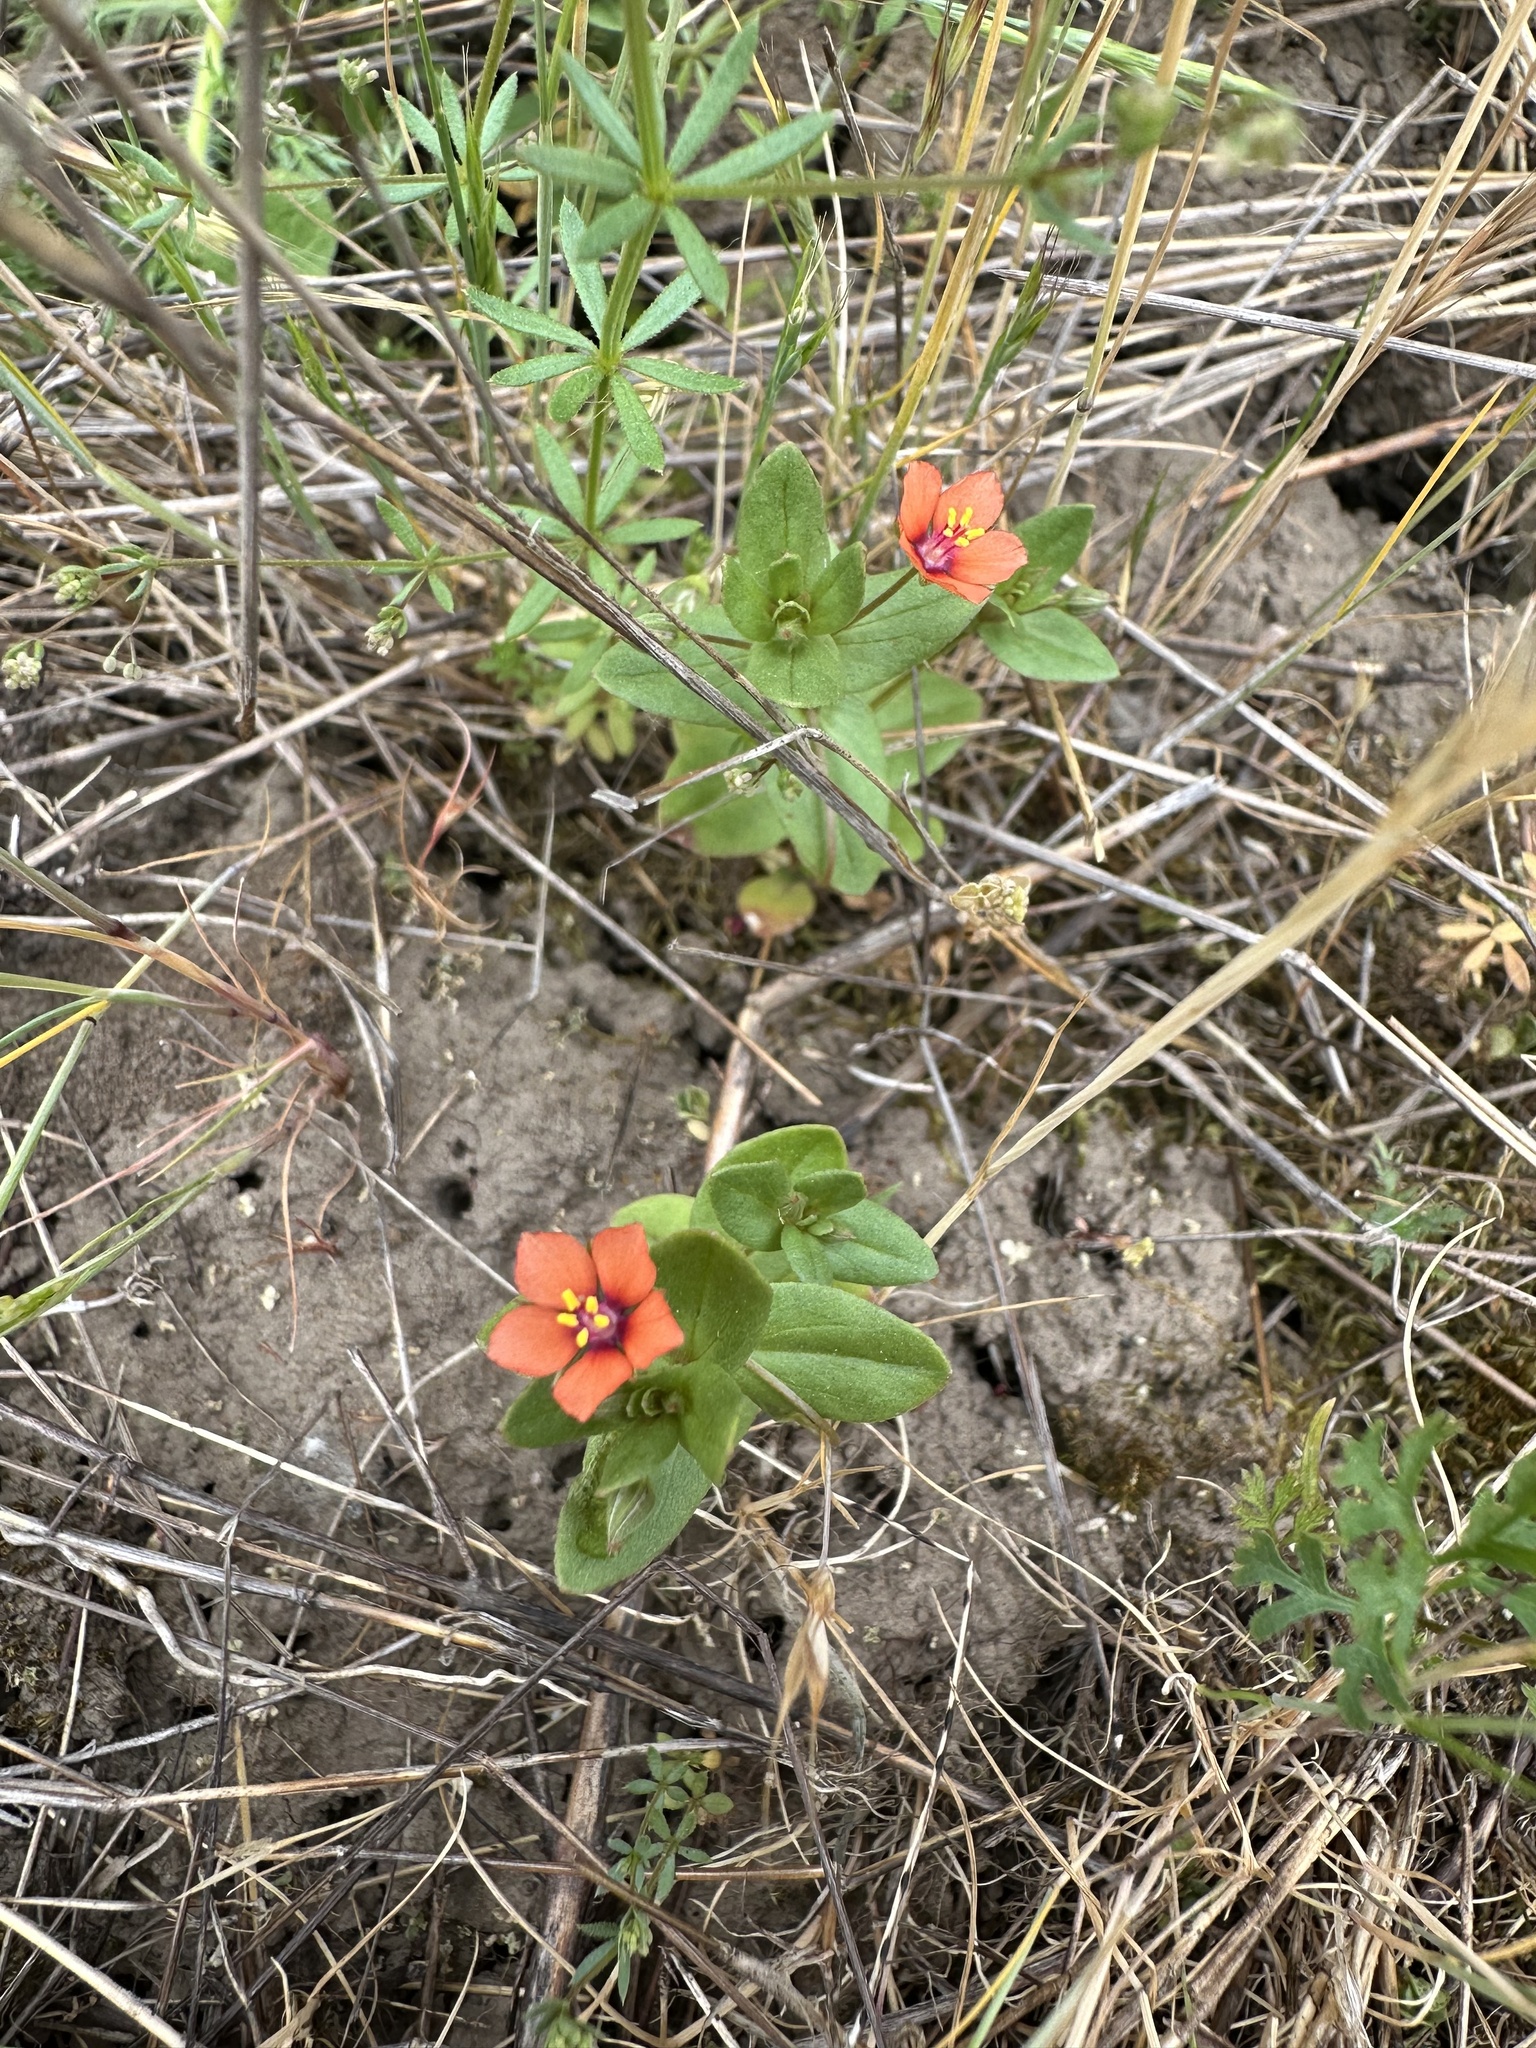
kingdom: Plantae
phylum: Tracheophyta
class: Magnoliopsida
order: Ericales
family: Primulaceae
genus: Lysimachia
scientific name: Lysimachia arvensis
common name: Scarlet pimpernel
